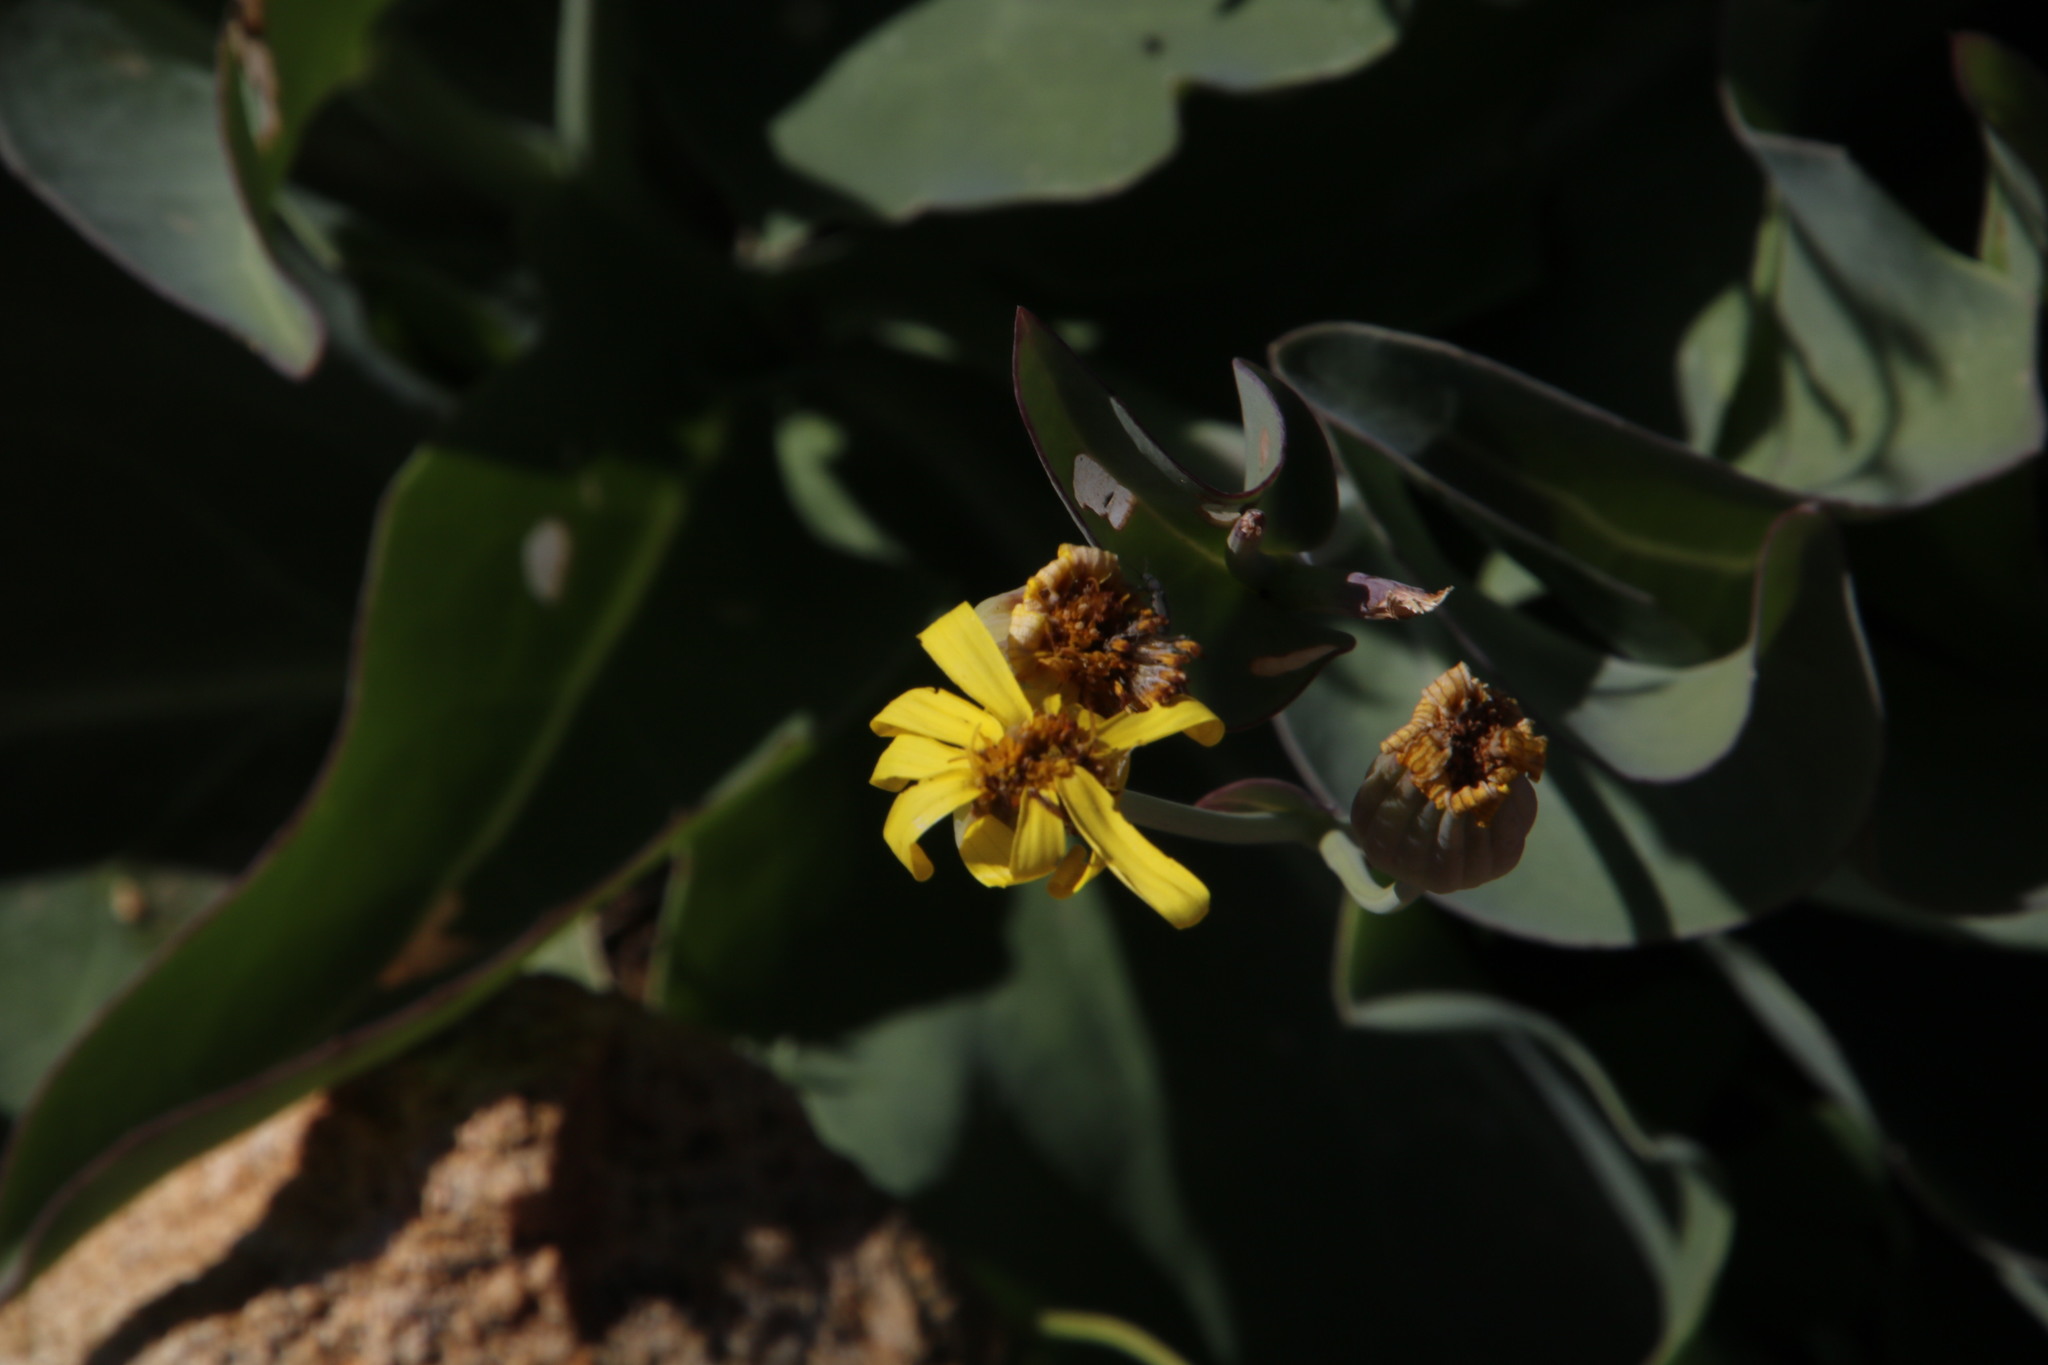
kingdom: Plantae
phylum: Tracheophyta
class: Magnoliopsida
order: Asterales
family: Asteraceae
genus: Othonna
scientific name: Othonna macrophylla
